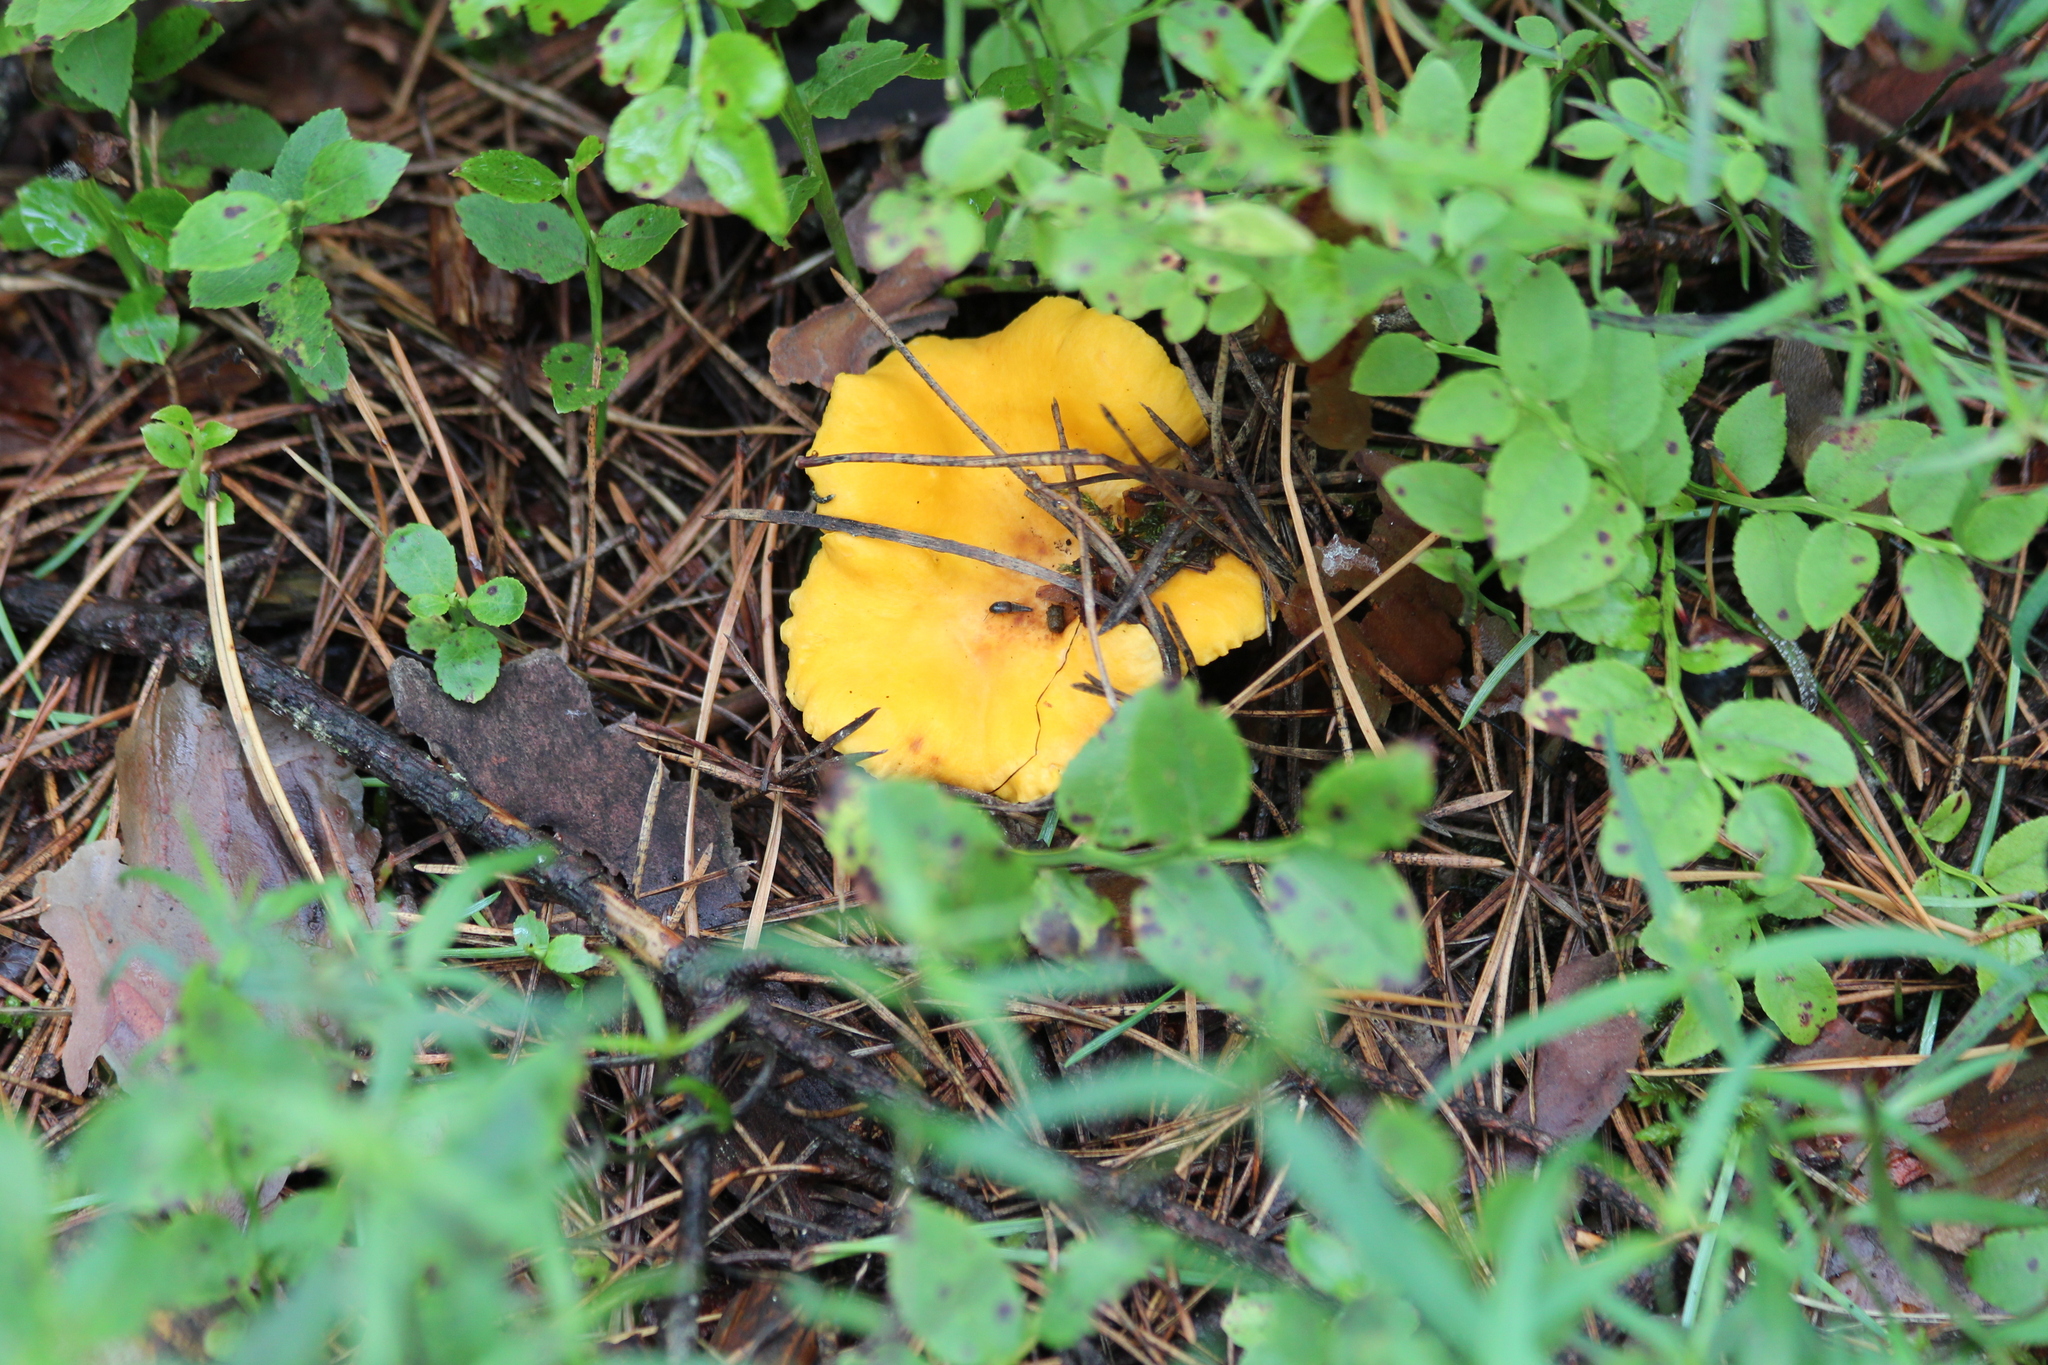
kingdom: Fungi
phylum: Basidiomycota
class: Agaricomycetes
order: Cantharellales
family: Hydnaceae
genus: Cantharellus
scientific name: Cantharellus cibarius
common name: Chanterelle
